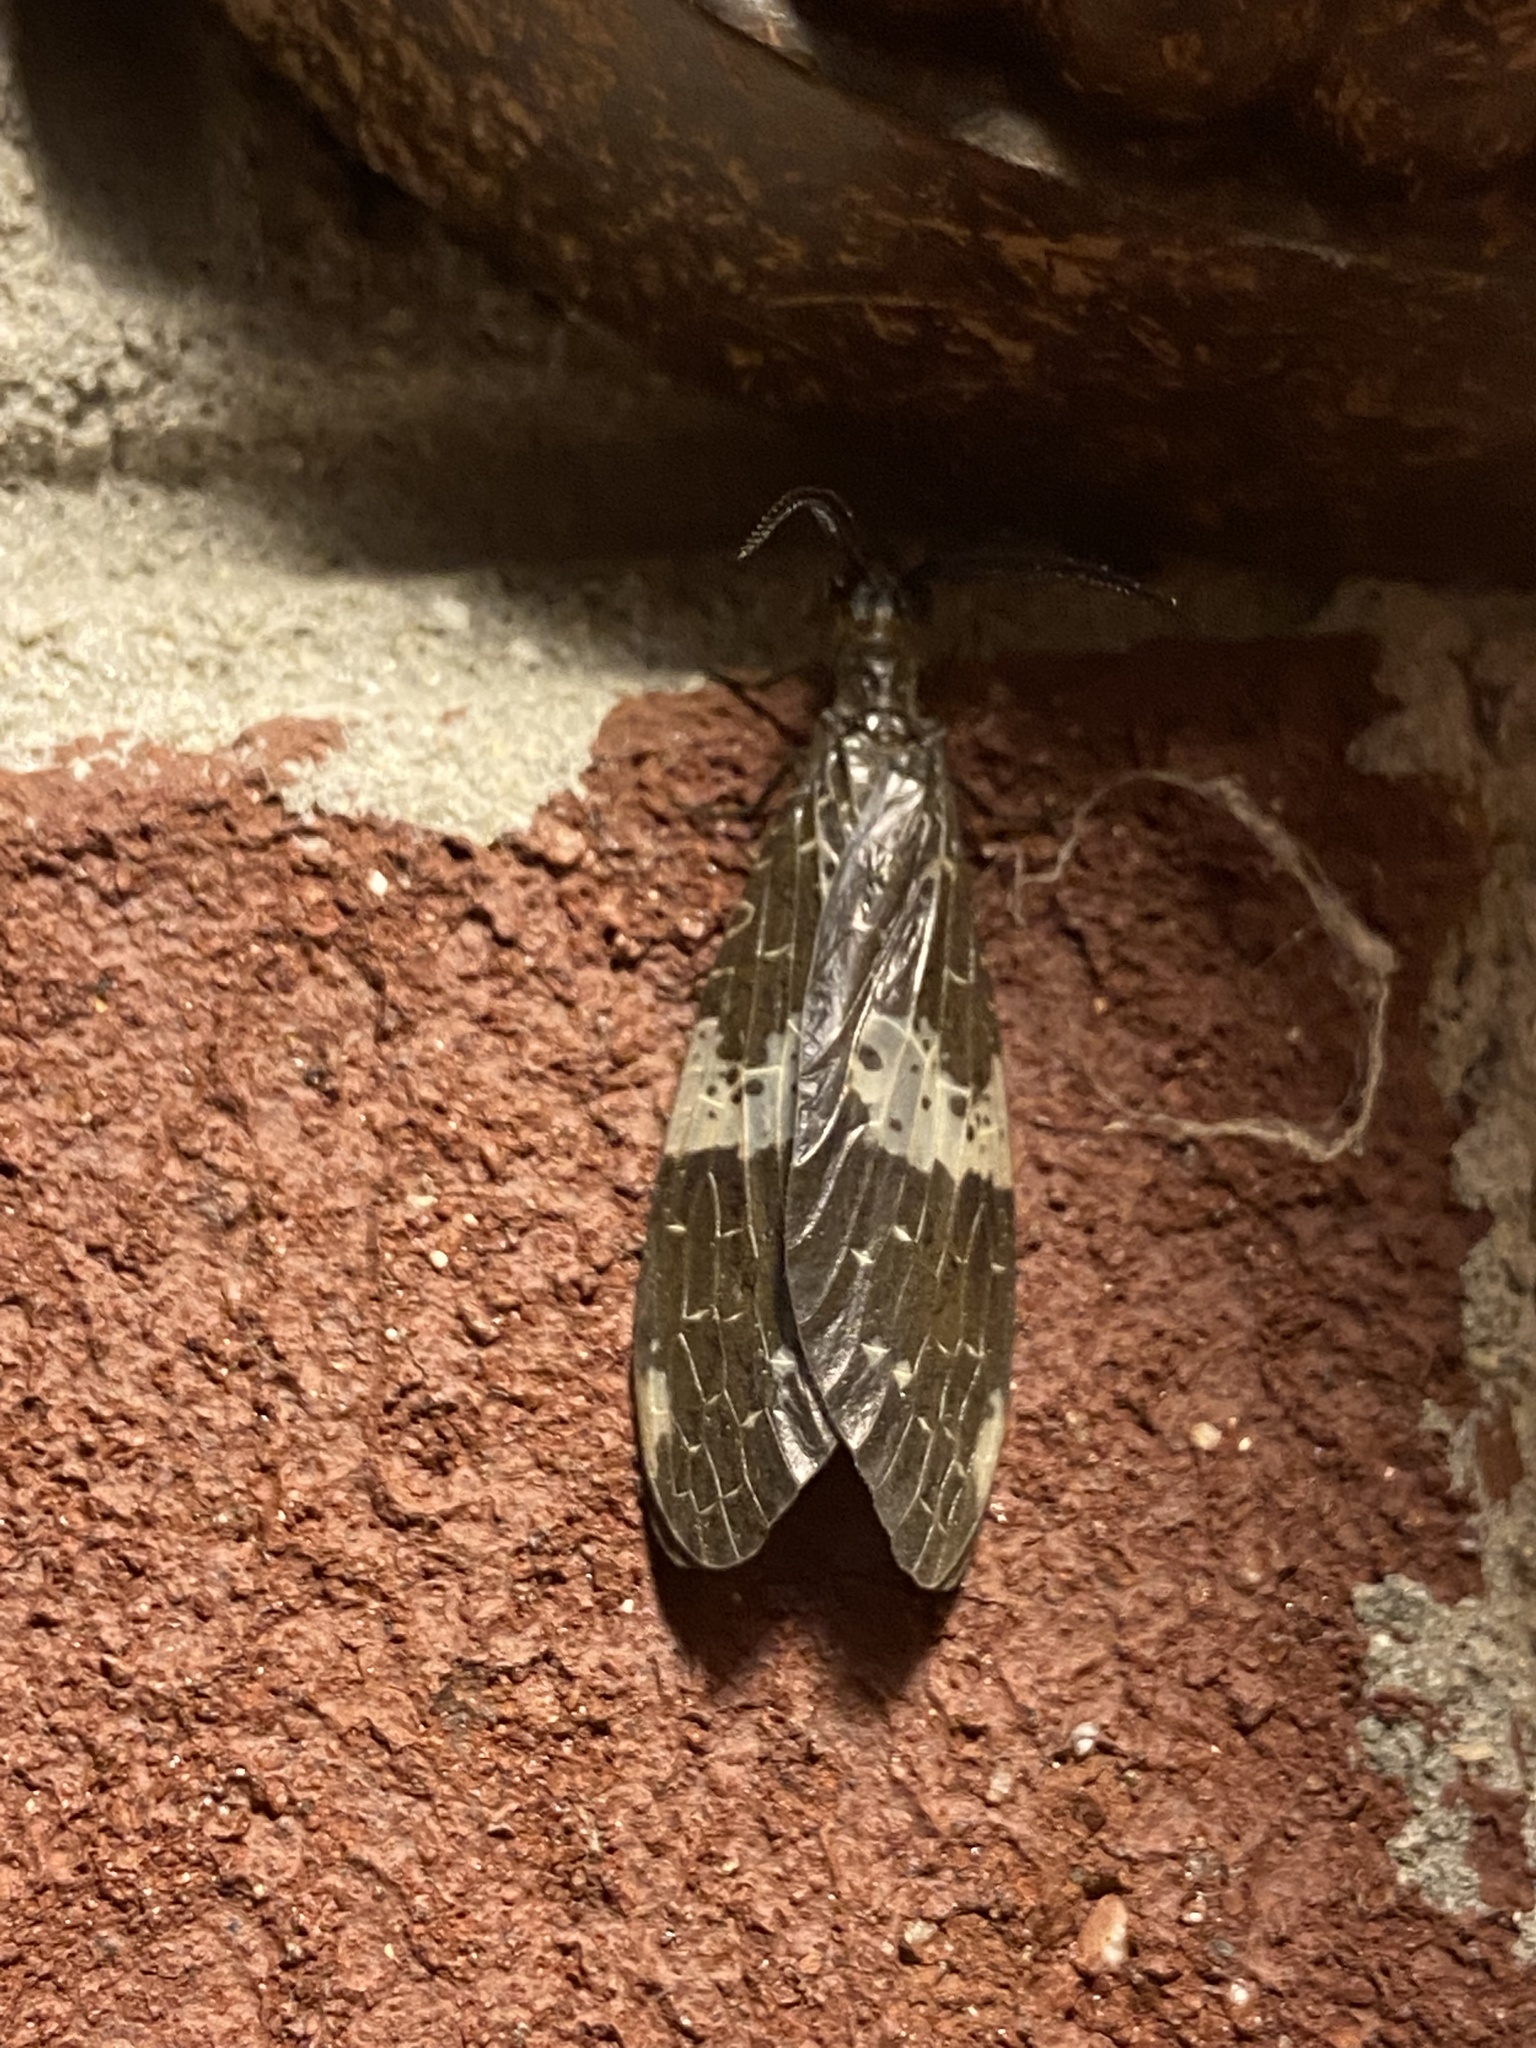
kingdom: Animalia
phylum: Arthropoda
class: Insecta
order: Megaloptera
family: Corydalidae
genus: Nigronia
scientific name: Nigronia fasciata
